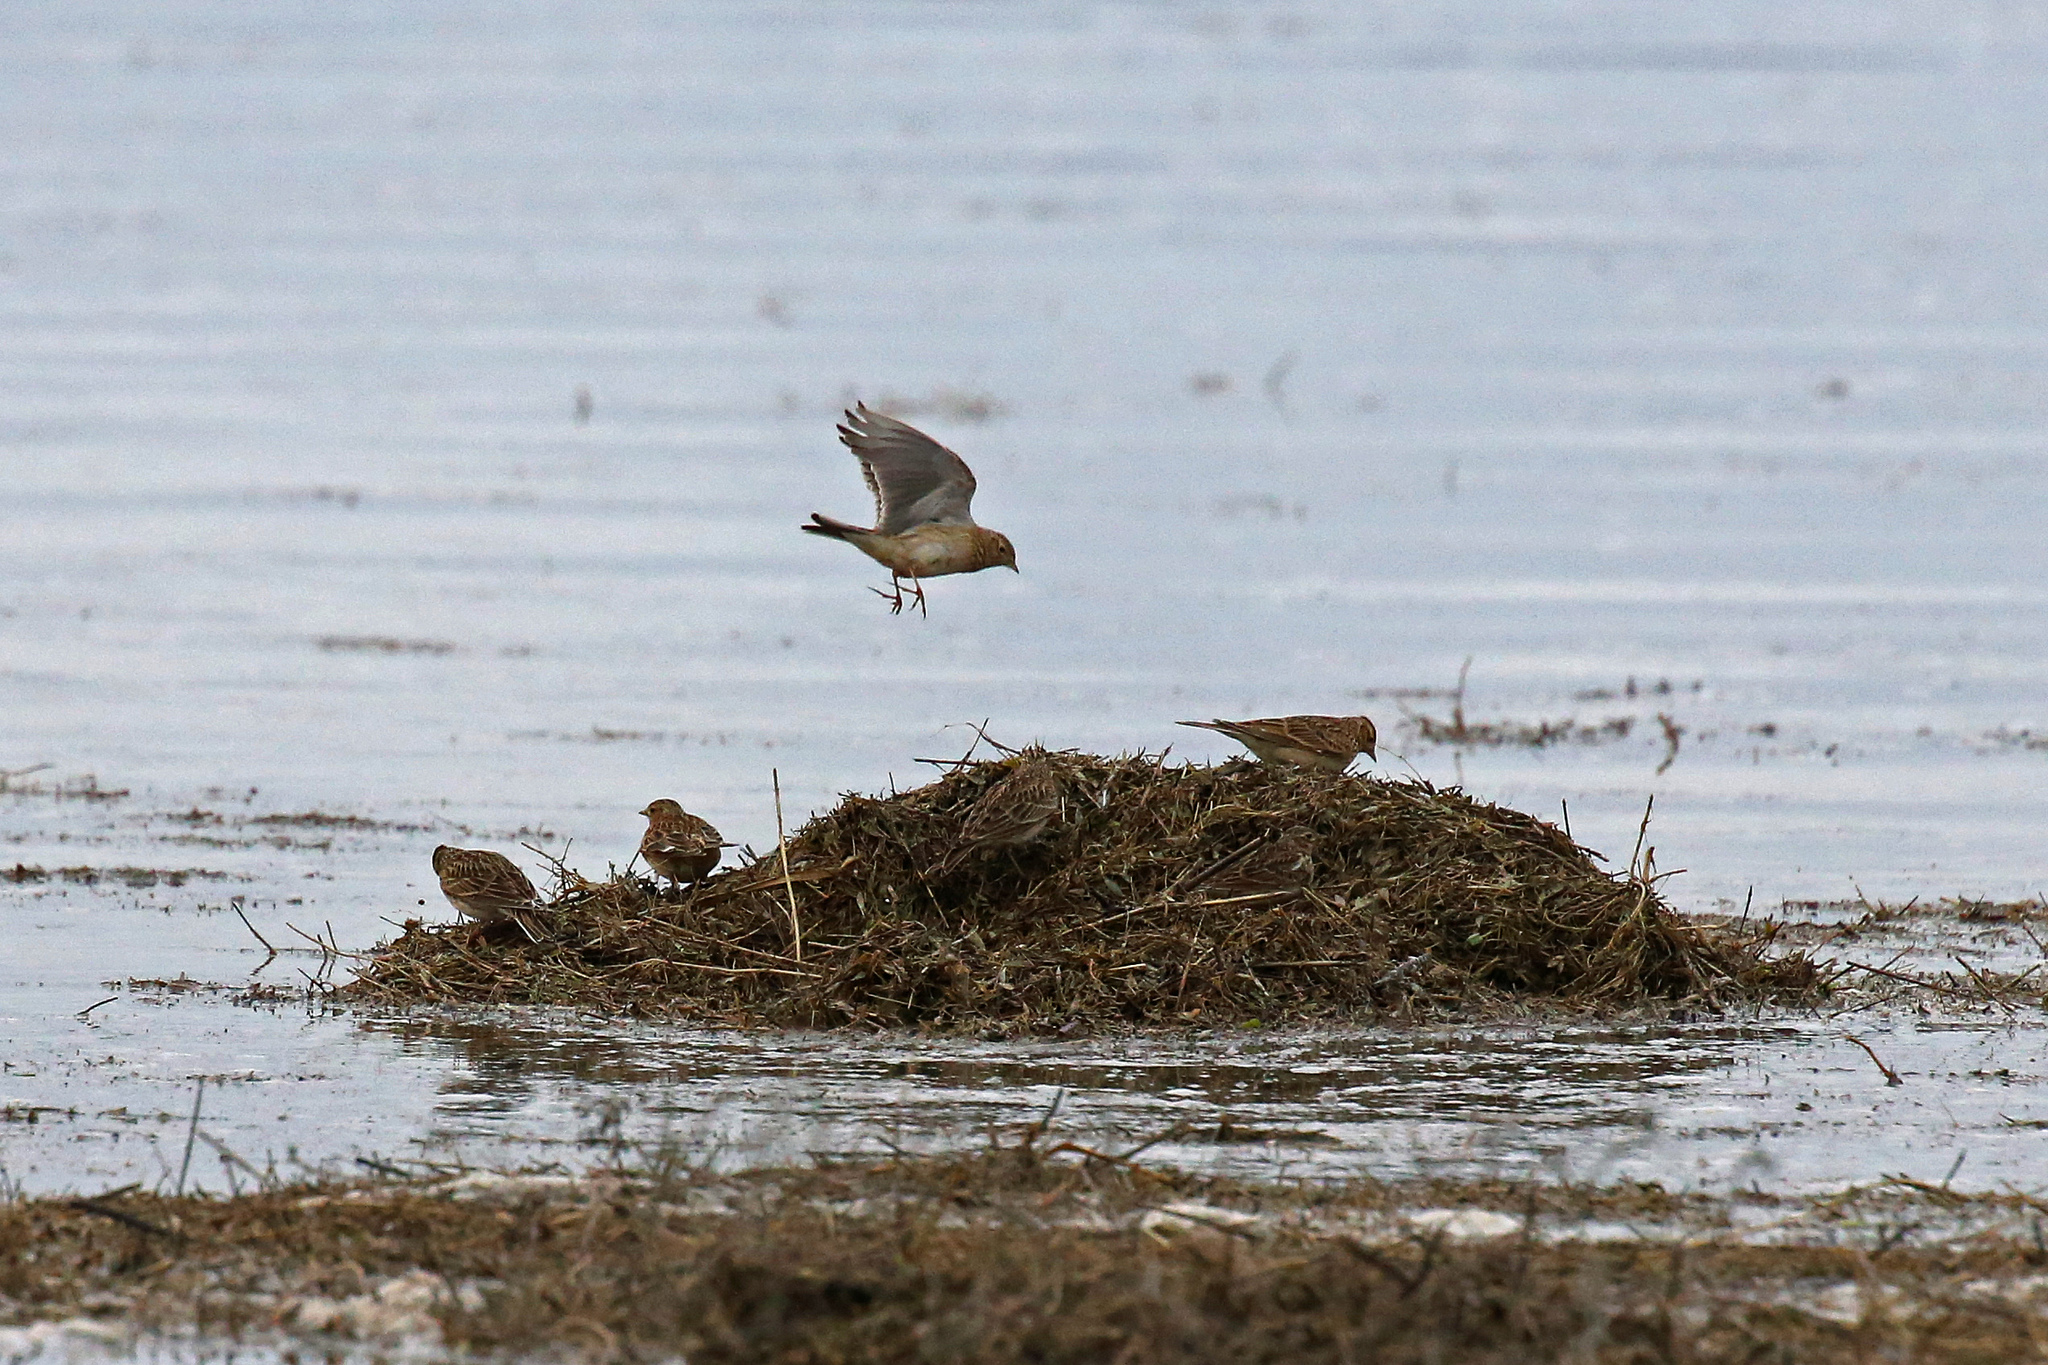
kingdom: Animalia
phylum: Chordata
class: Aves
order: Passeriformes
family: Alaudidae
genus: Alauda
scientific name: Alauda arvensis
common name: Eurasian skylark
